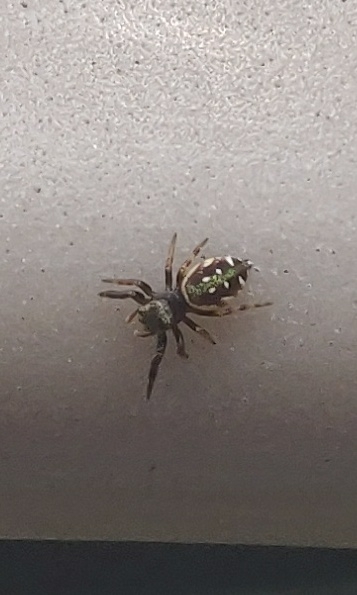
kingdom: Animalia
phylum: Arthropoda
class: Arachnida
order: Araneae
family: Salticidae
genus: Paraphidippus
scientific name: Paraphidippus aurantius
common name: Jumping spiders
